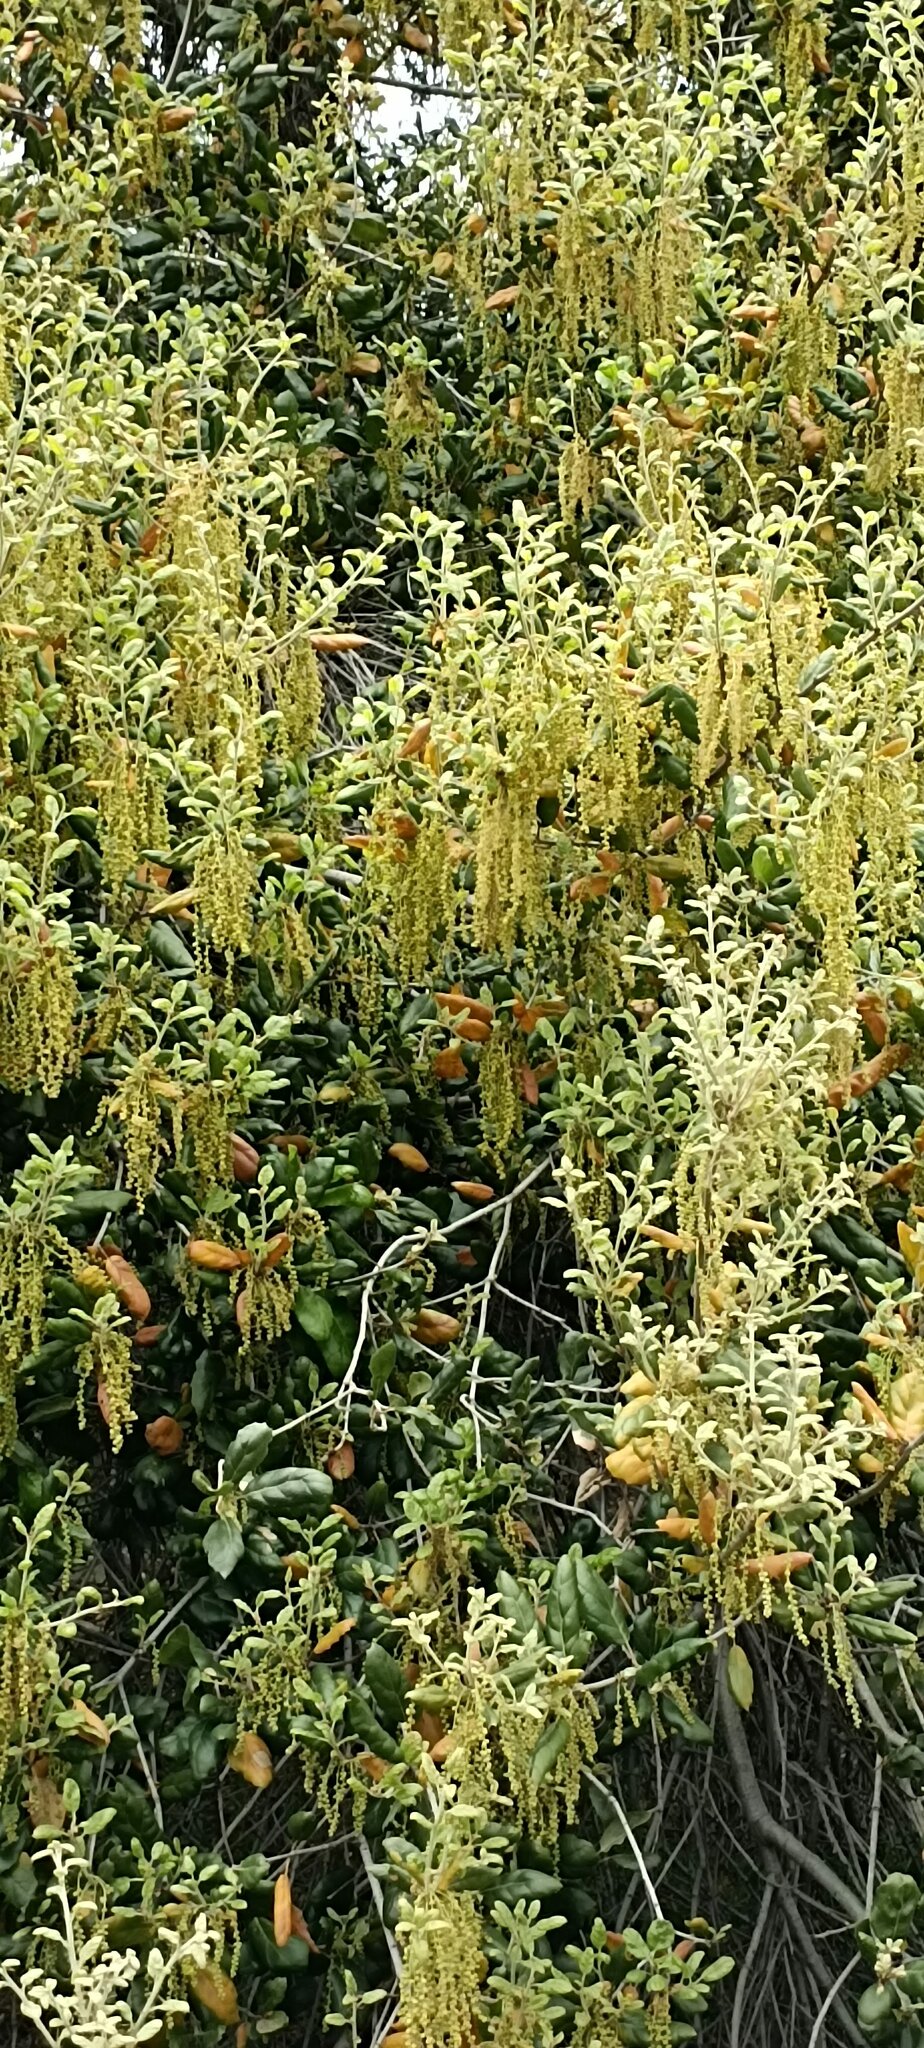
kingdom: Plantae
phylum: Tracheophyta
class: Magnoliopsida
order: Fagales
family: Fagaceae
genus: Quercus
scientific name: Quercus agrifolia
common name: California live oak
